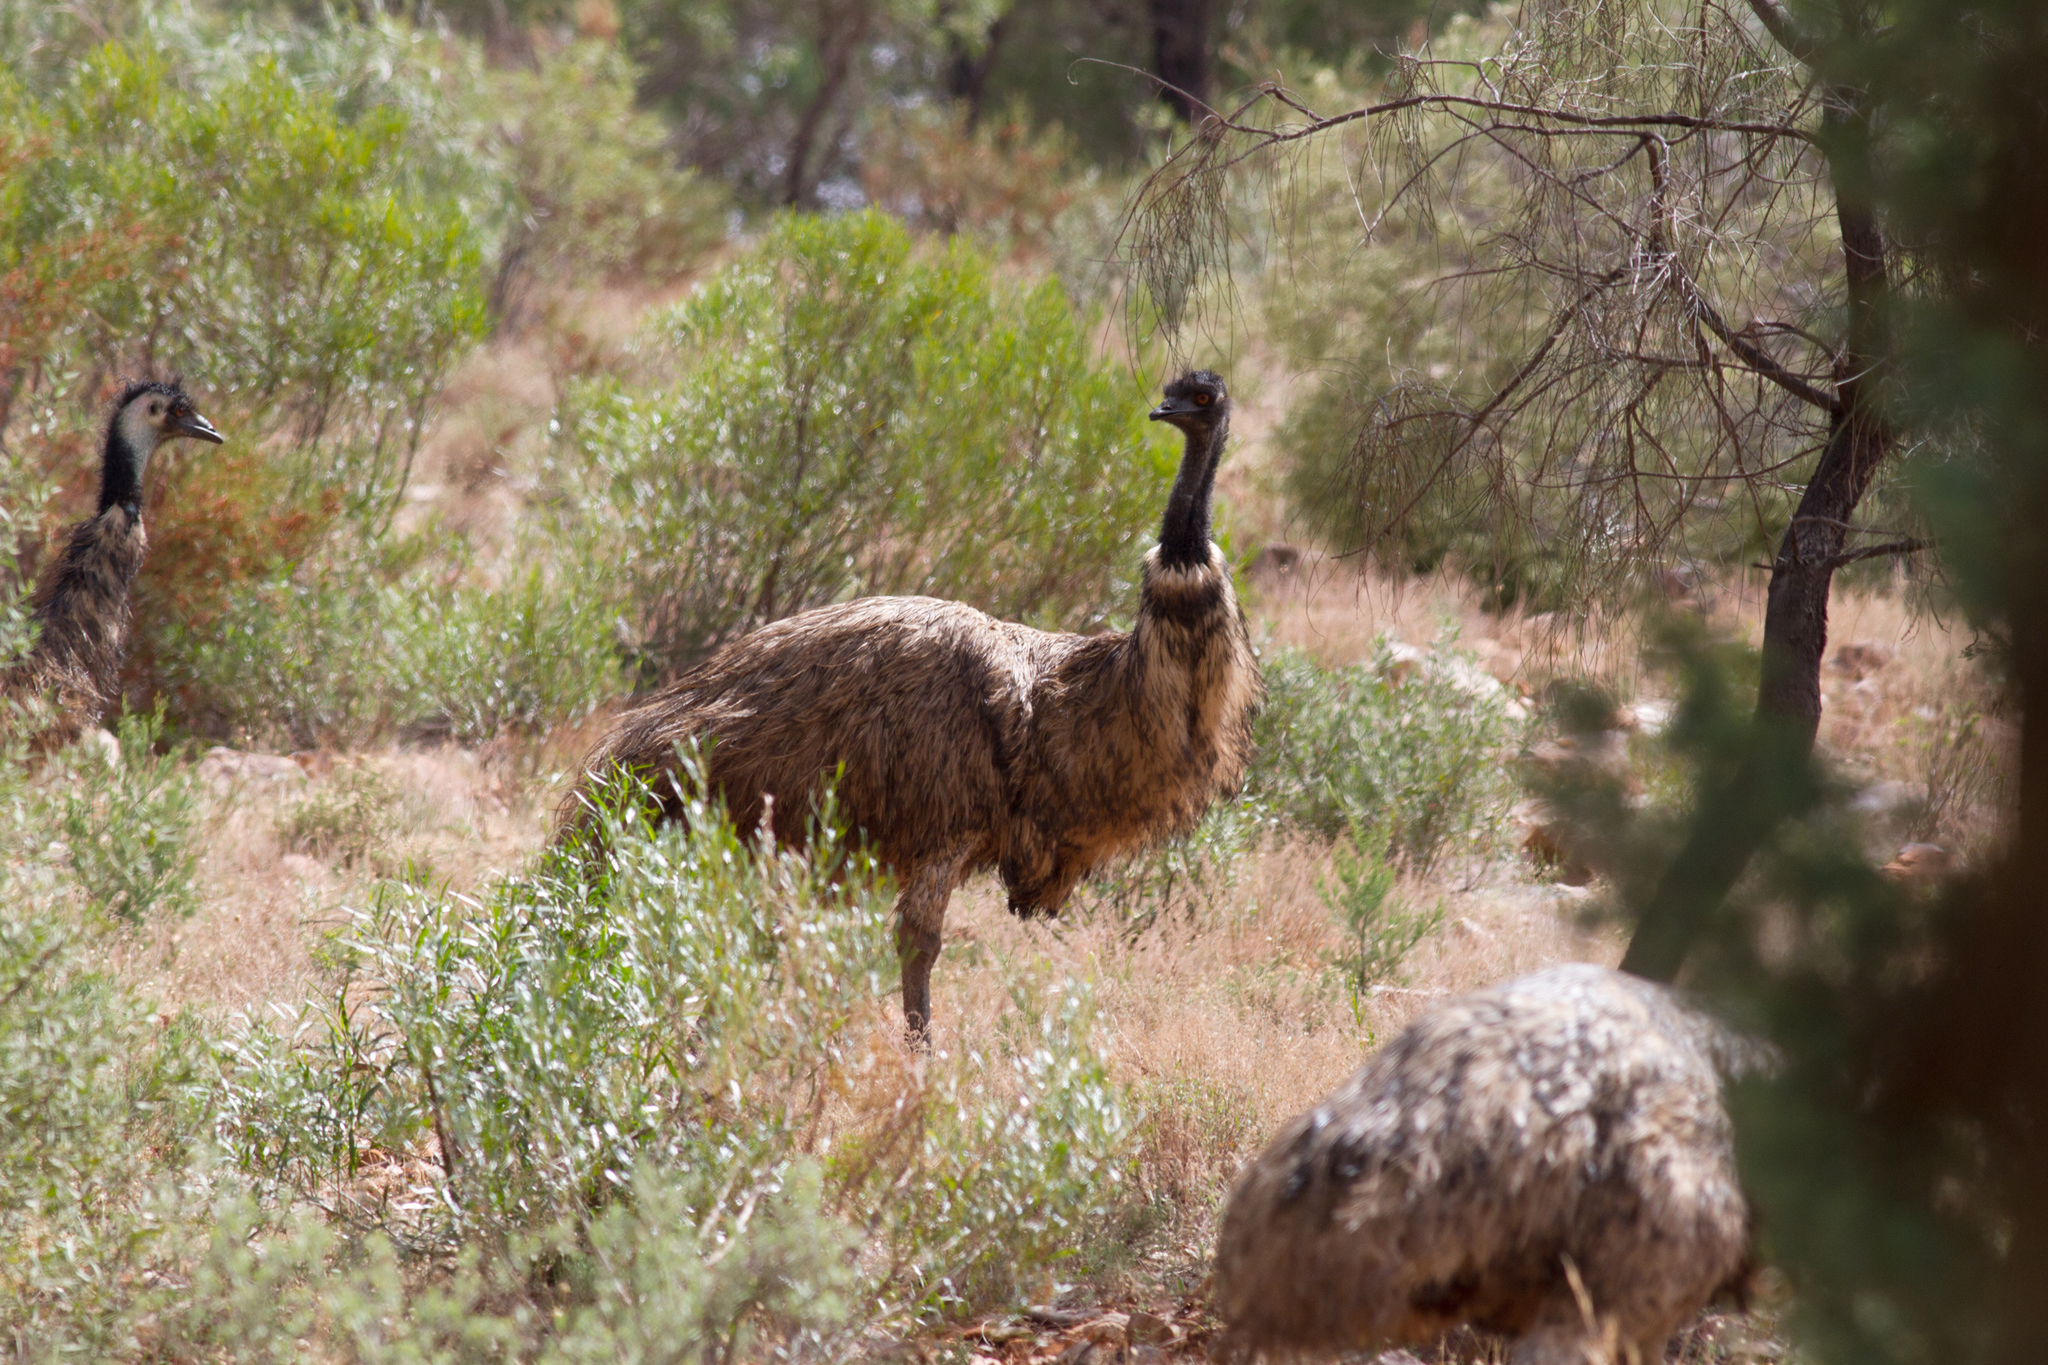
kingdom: Animalia
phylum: Chordata
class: Aves
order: Casuariiformes
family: Dromaiidae
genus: Dromaius
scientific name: Dromaius novaehollandiae
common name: Emu
